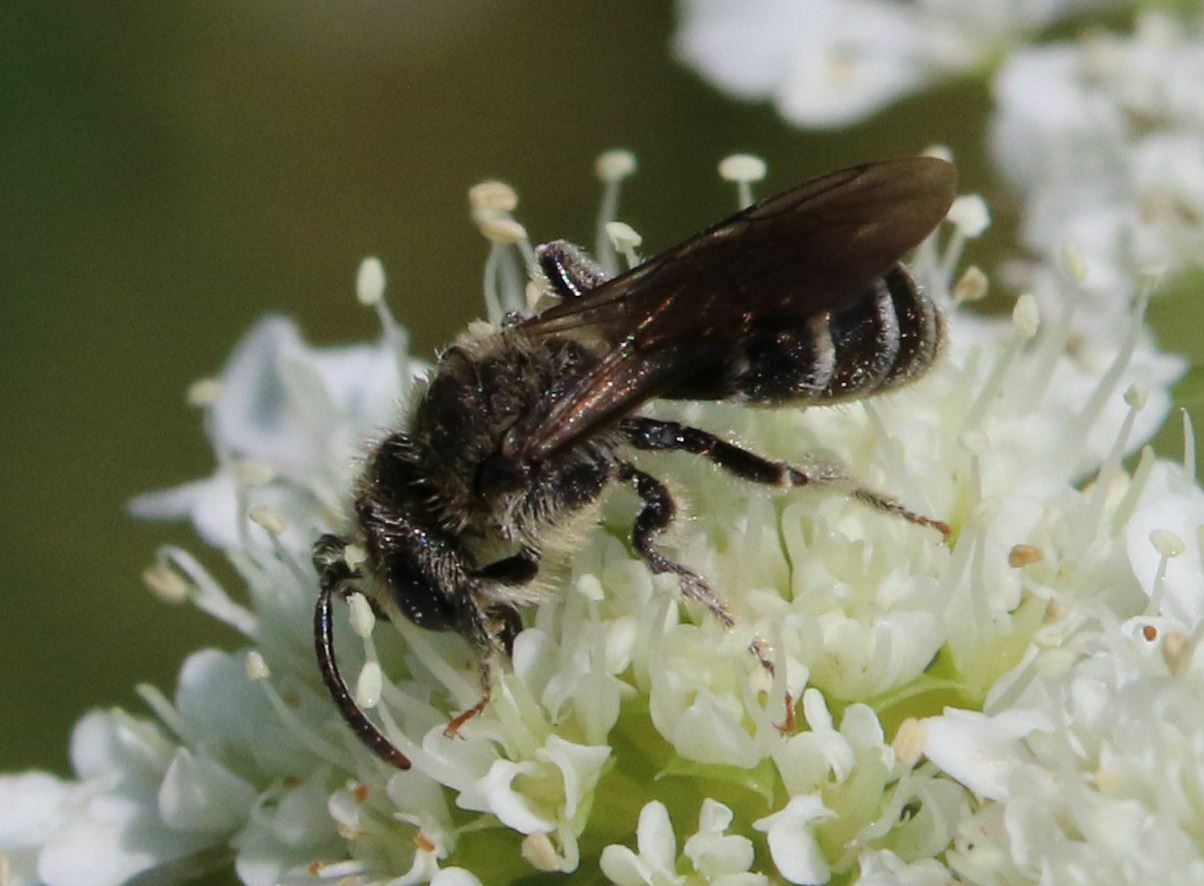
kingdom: Animalia
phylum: Arthropoda
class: Insecta
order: Hymenoptera
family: Andrenidae
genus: Andrena
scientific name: Andrena colletiformis
